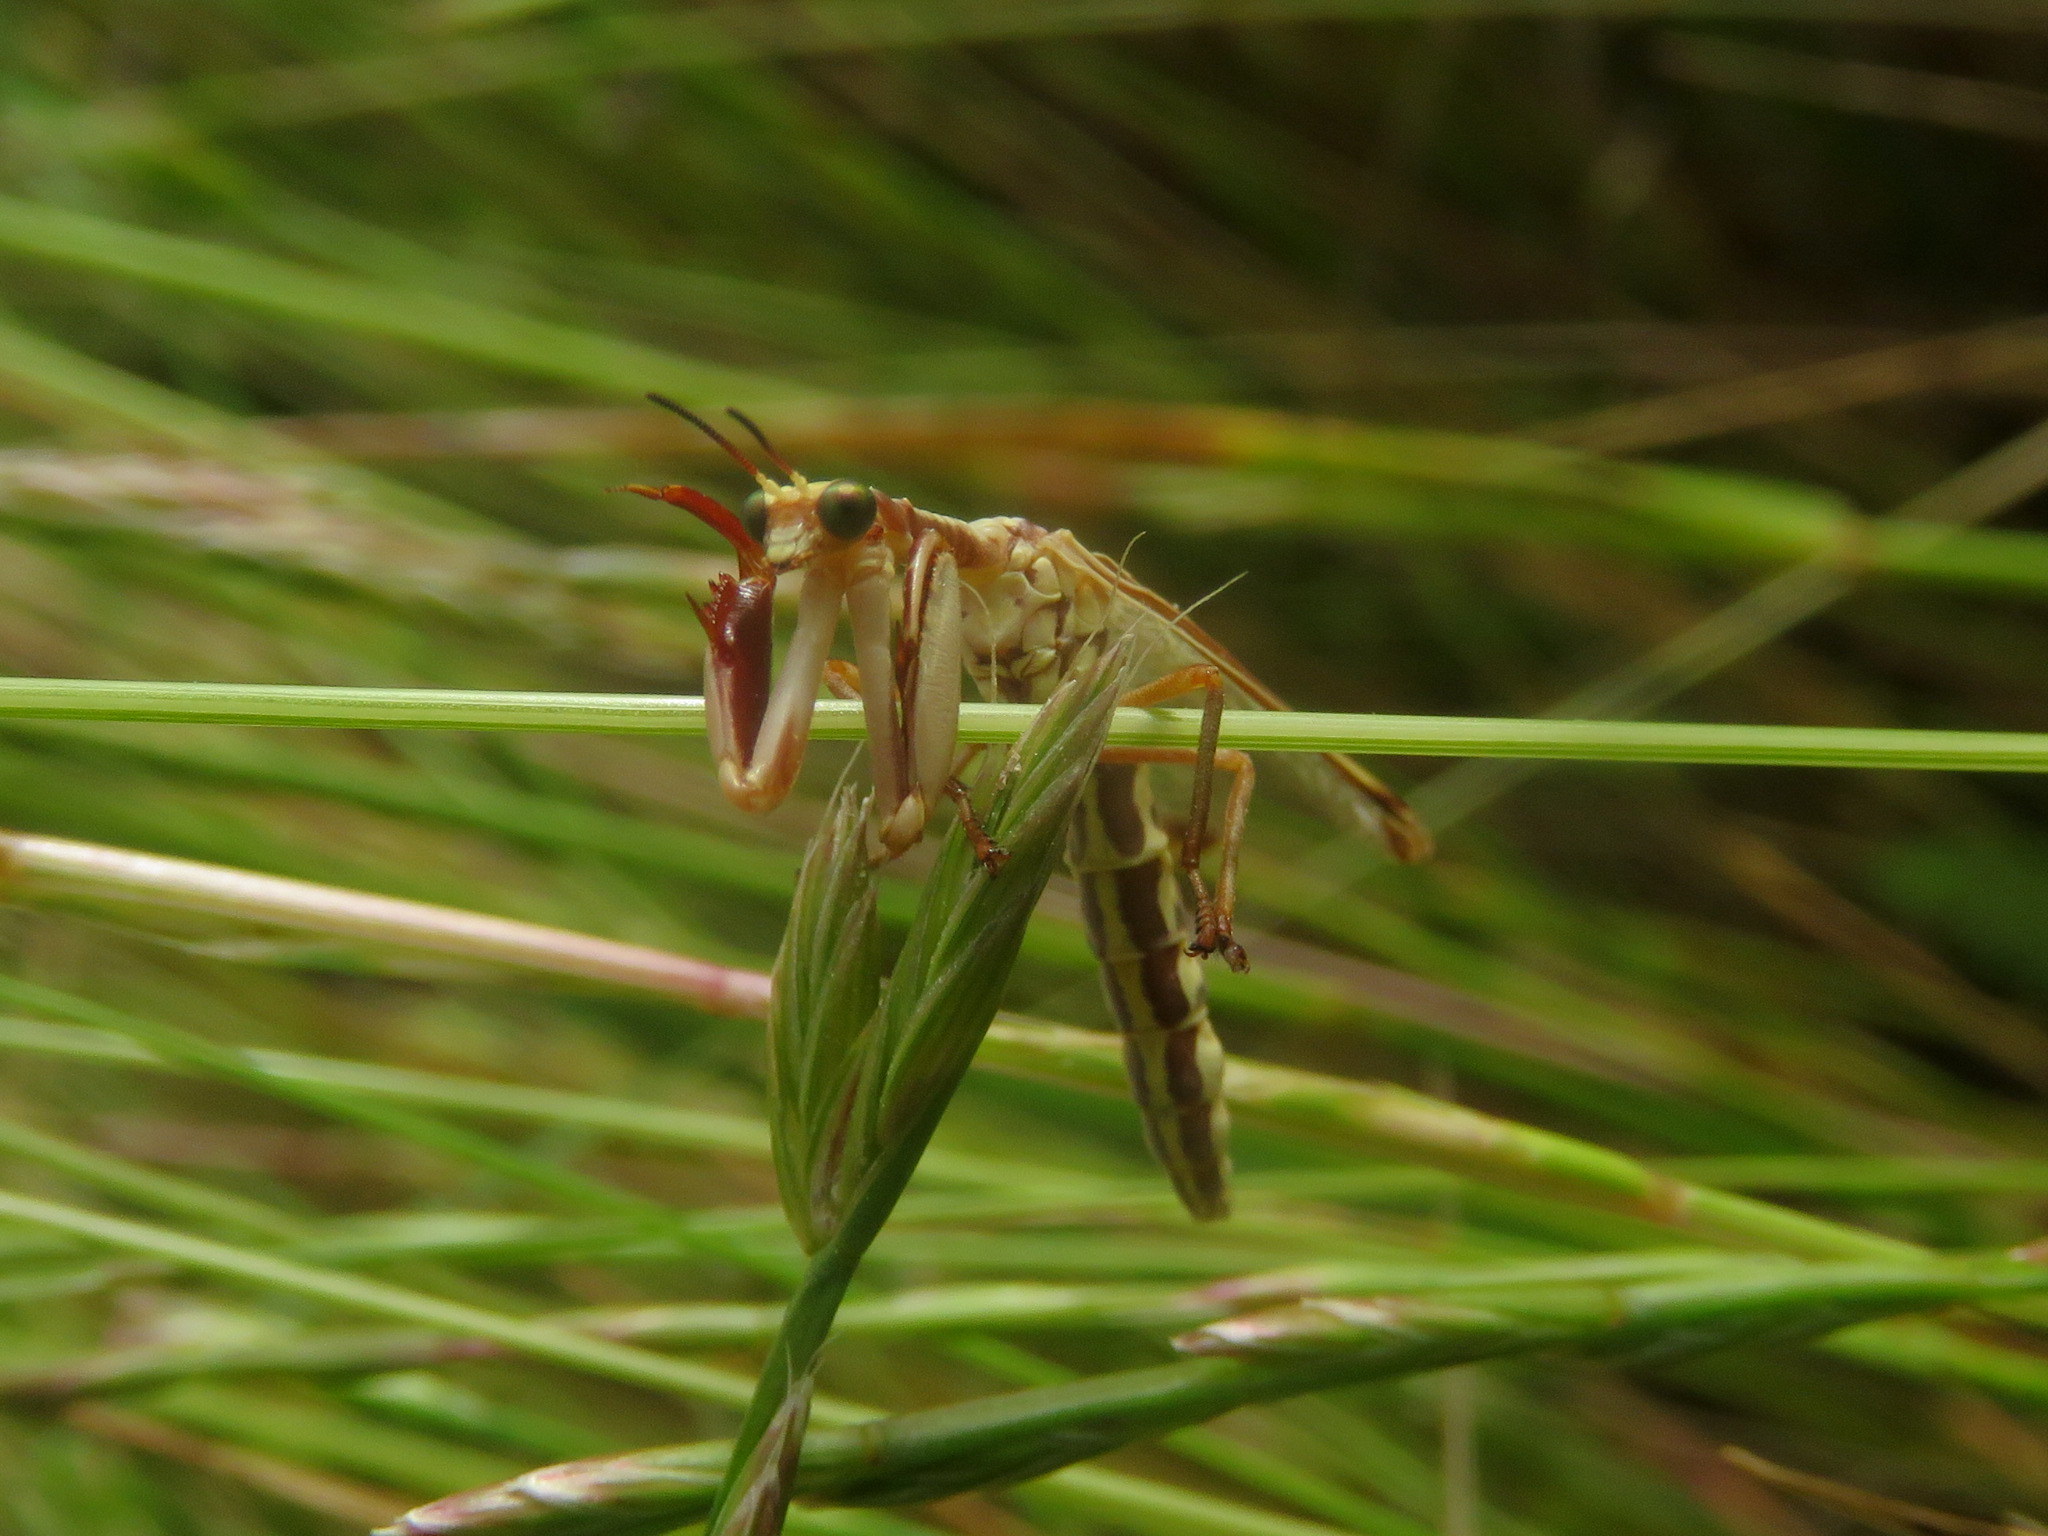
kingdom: Animalia
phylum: Arthropoda
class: Insecta
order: Neuroptera
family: Mantispidae
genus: Paramantispa
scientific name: Paramantispa prolixa
